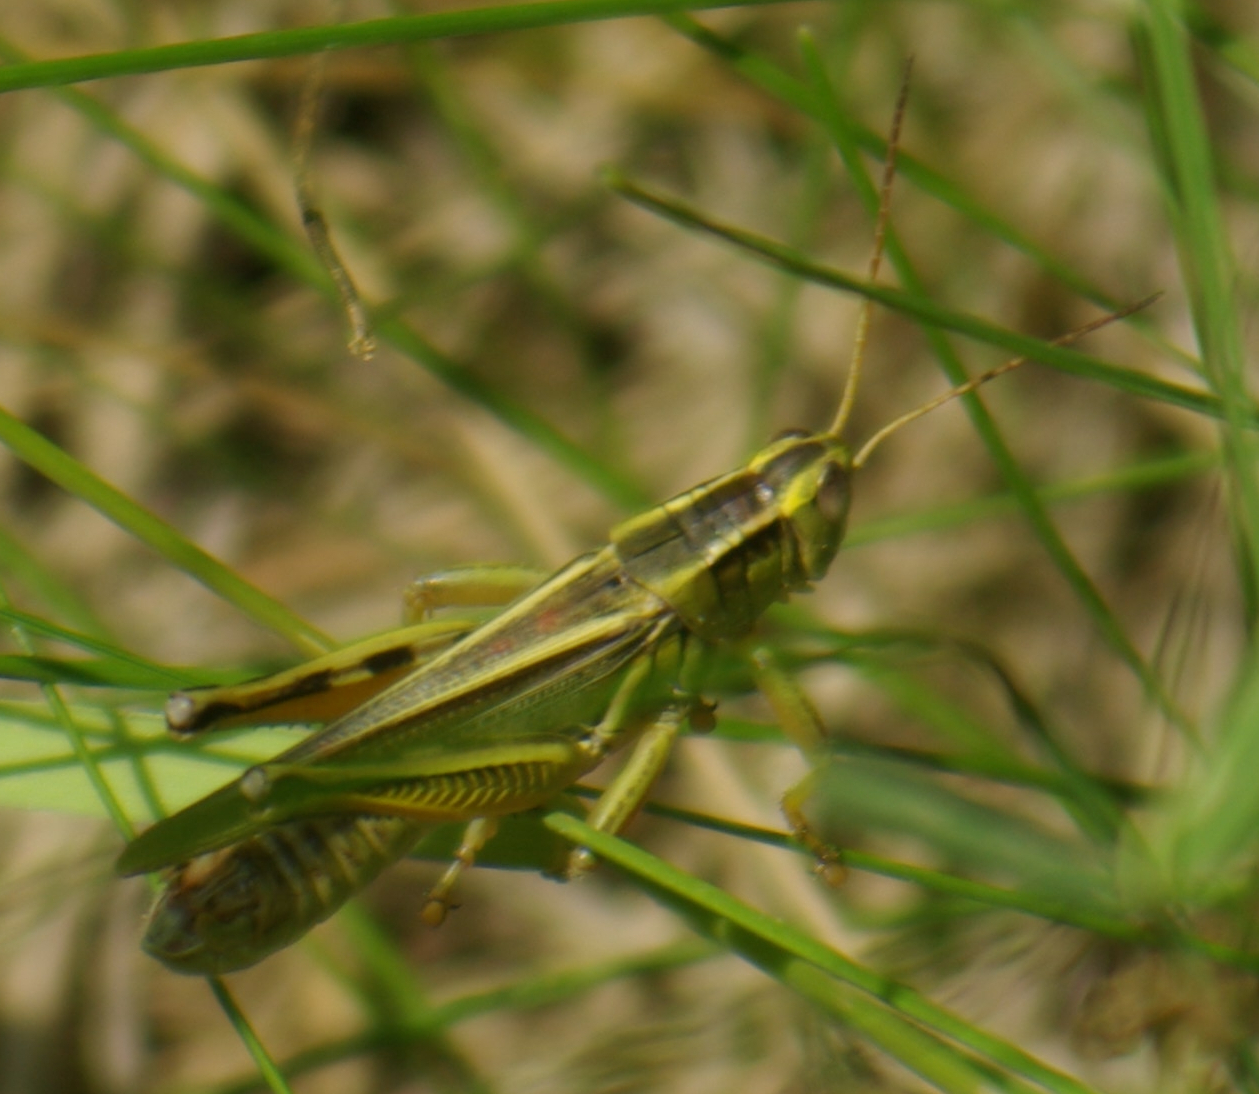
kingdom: Animalia
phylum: Arthropoda
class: Insecta
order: Orthoptera
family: Acrididae
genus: Melanoplus
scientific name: Melanoplus bivittatus
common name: Two-striped grasshopper
